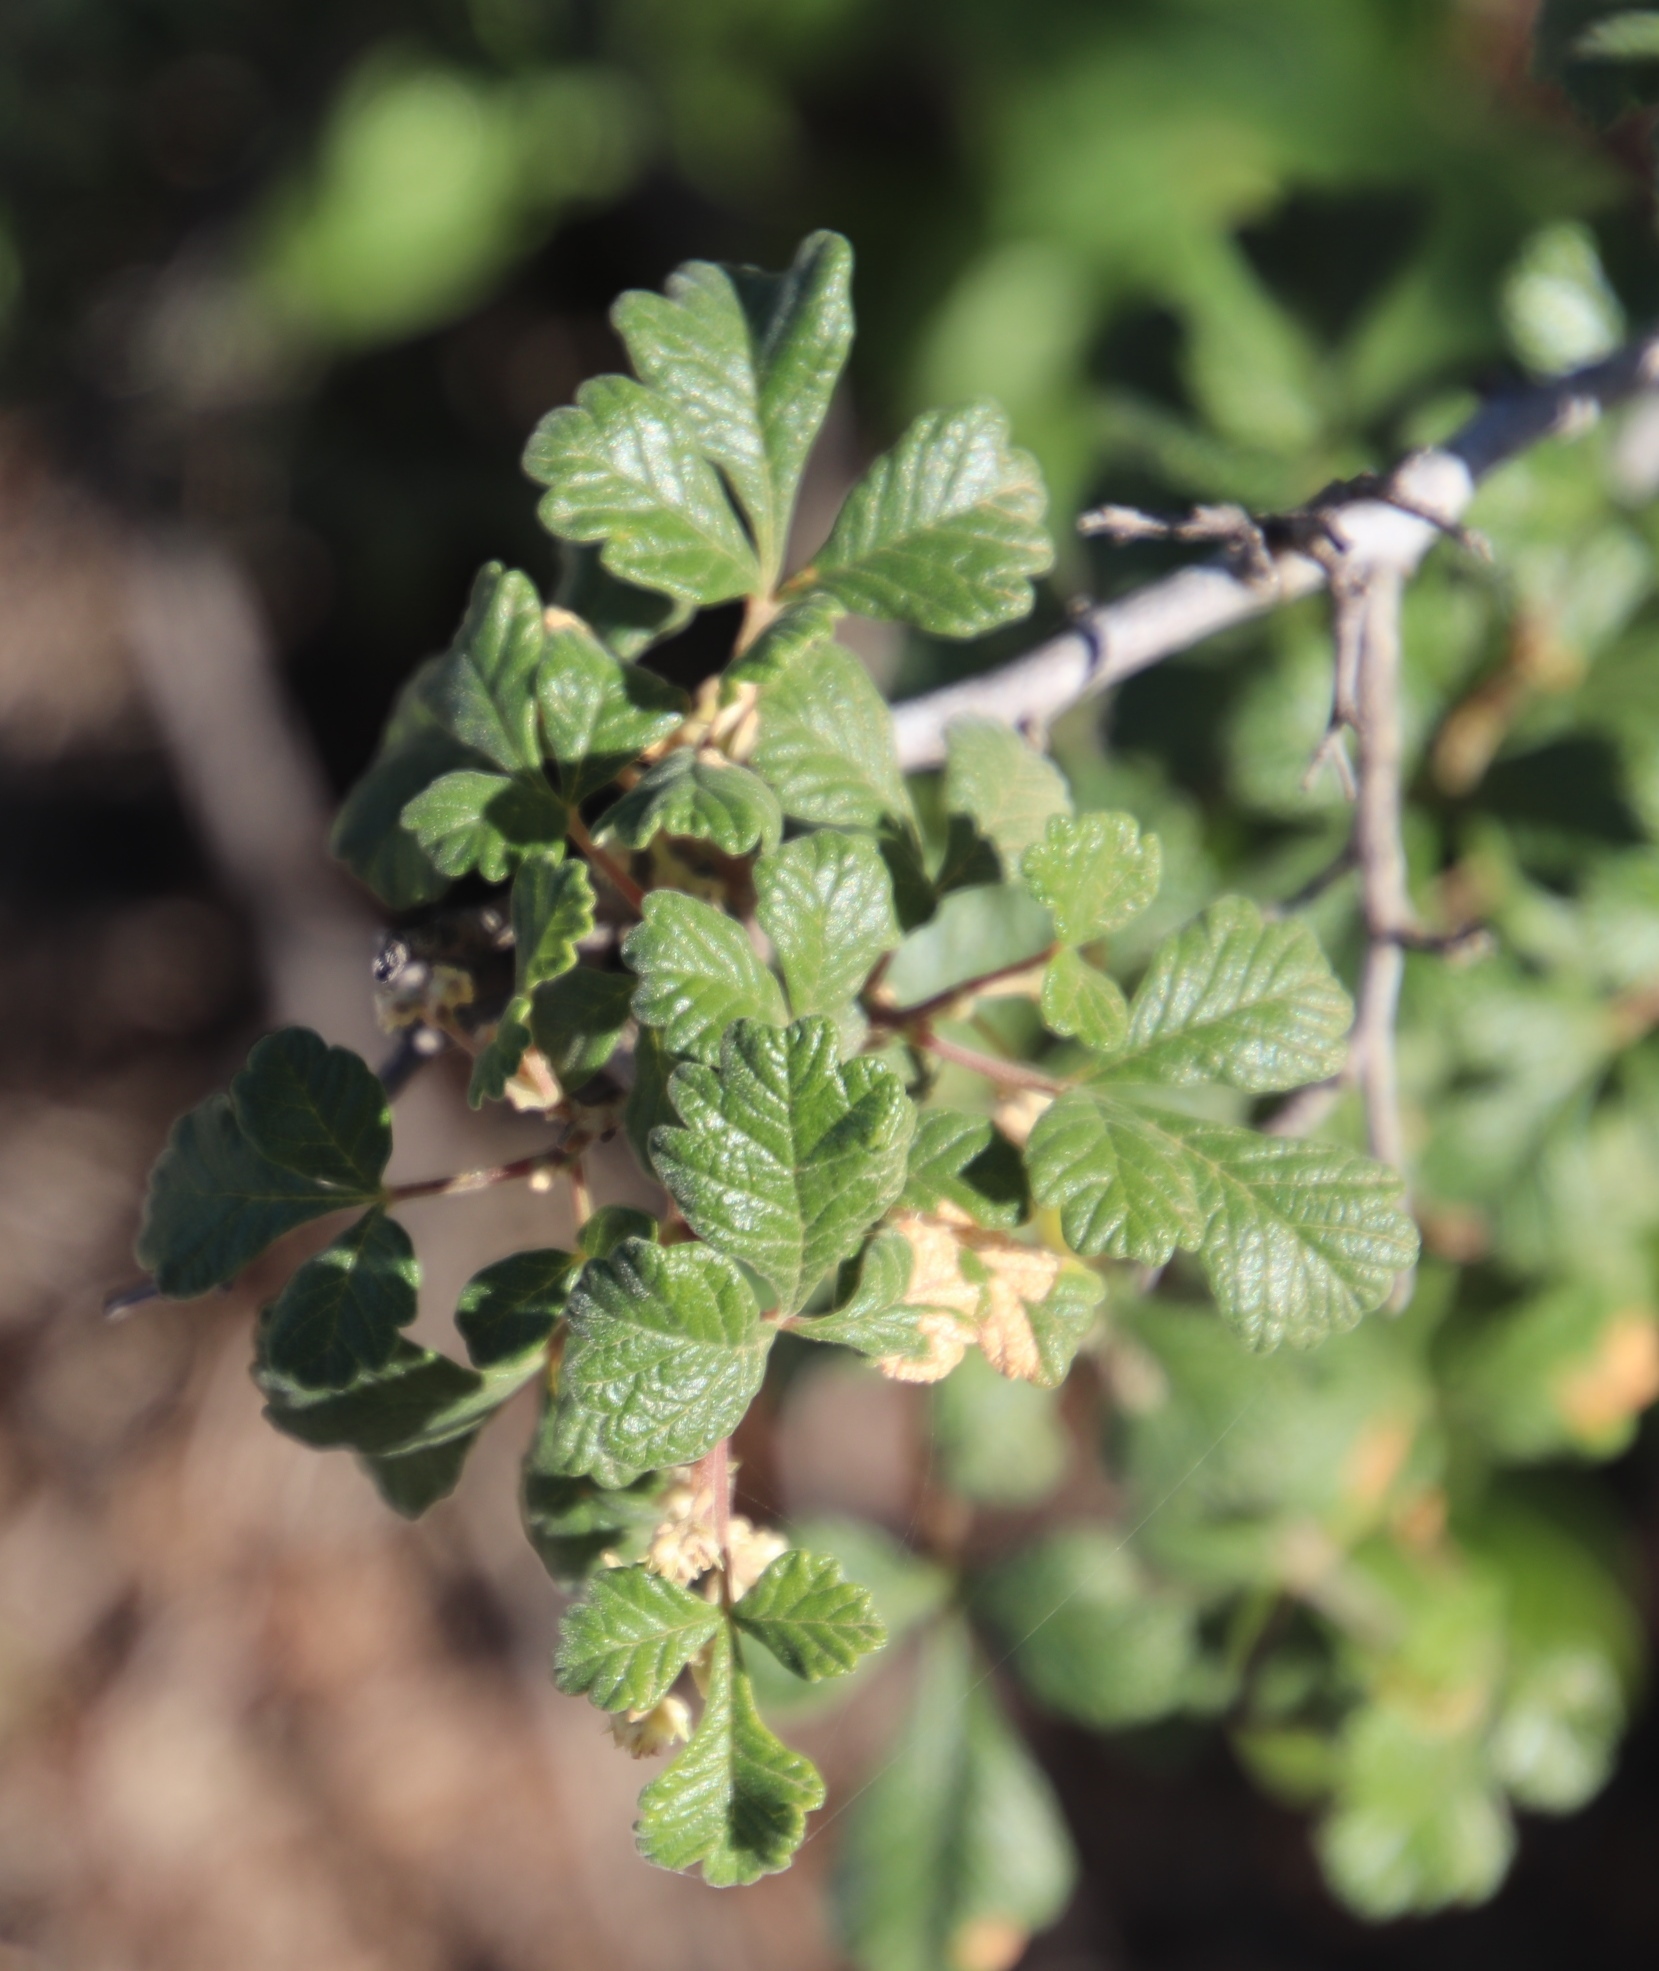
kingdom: Plantae
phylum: Tracheophyta
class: Magnoliopsida
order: Sapindales
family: Anacardiaceae
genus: Searsia
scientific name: Searsia incisa
